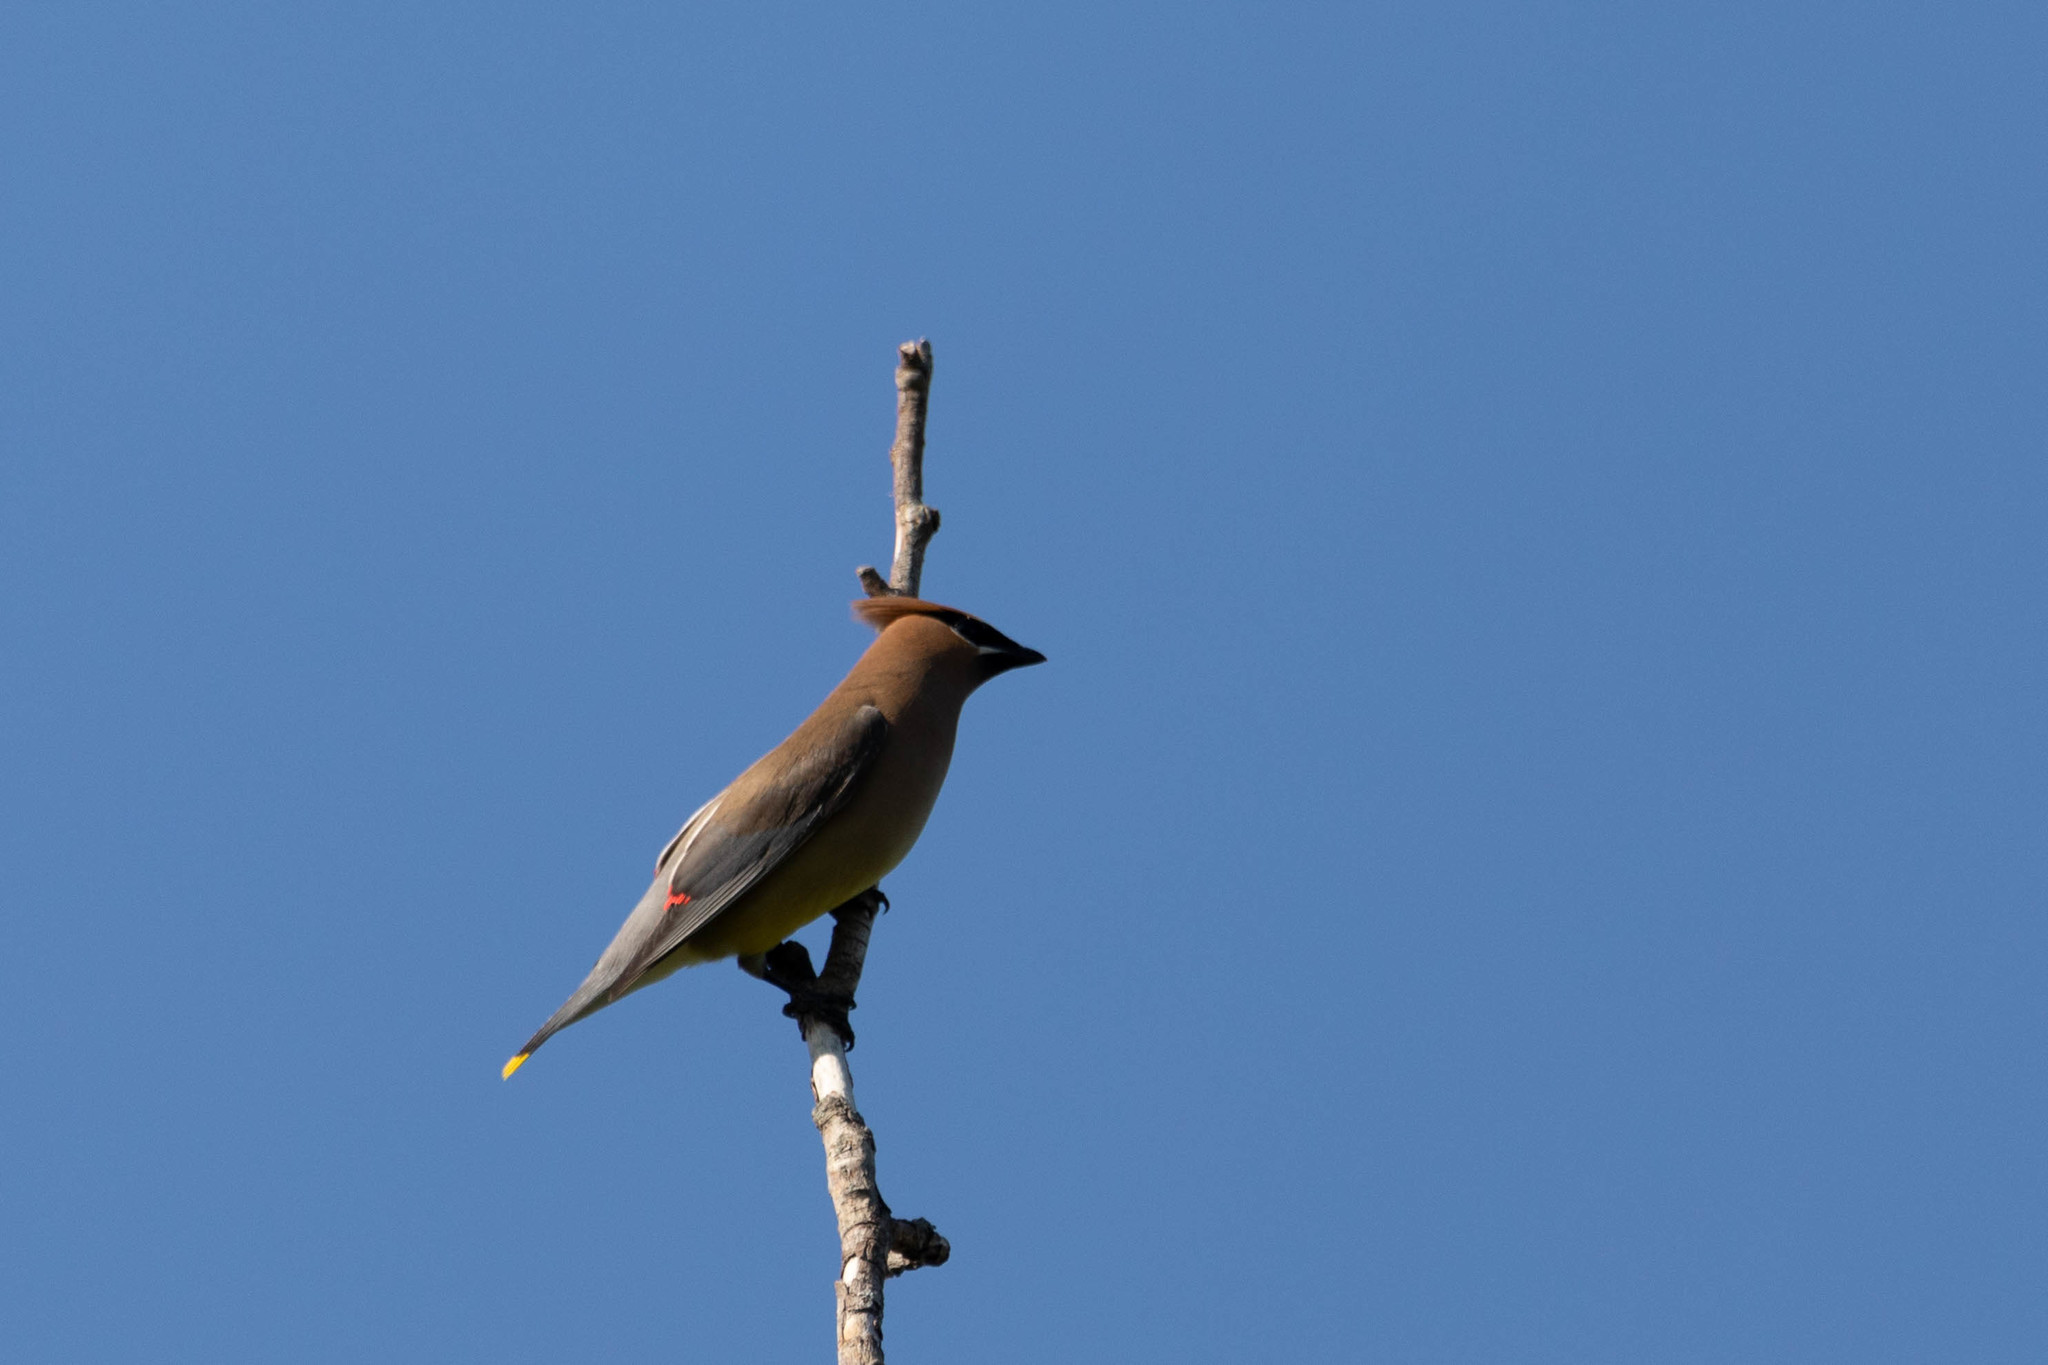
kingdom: Animalia
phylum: Chordata
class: Aves
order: Passeriformes
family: Bombycillidae
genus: Bombycilla
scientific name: Bombycilla cedrorum
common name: Cedar waxwing
